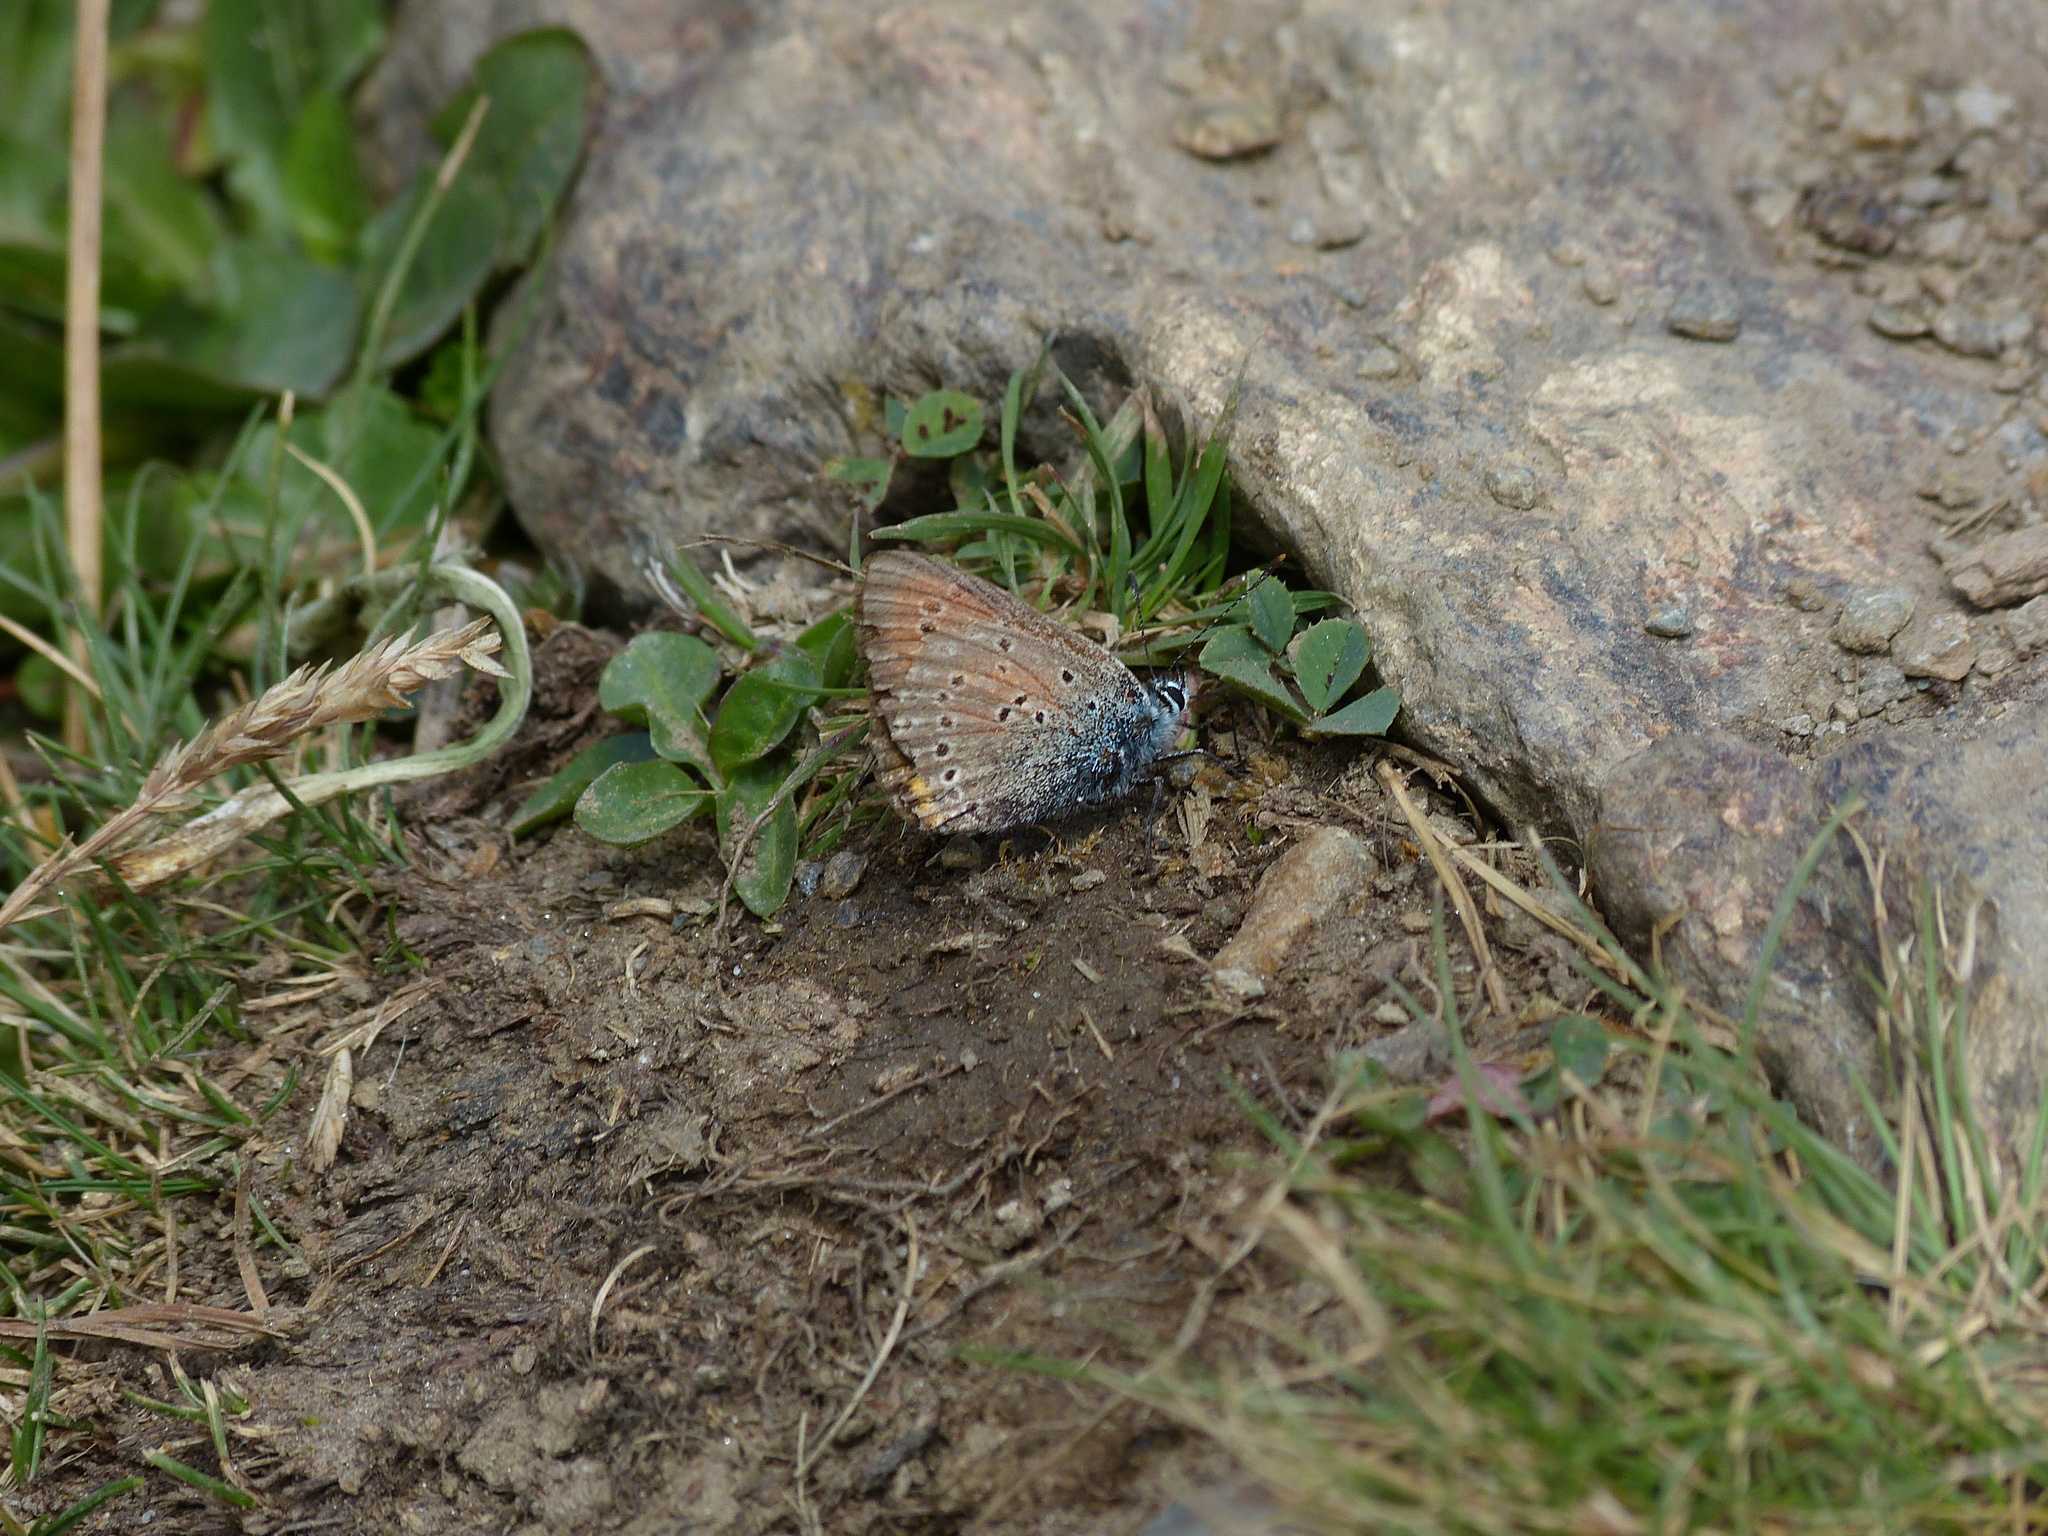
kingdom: Animalia
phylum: Arthropoda
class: Insecta
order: Lepidoptera
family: Lycaenidae
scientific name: Lycaenidae
